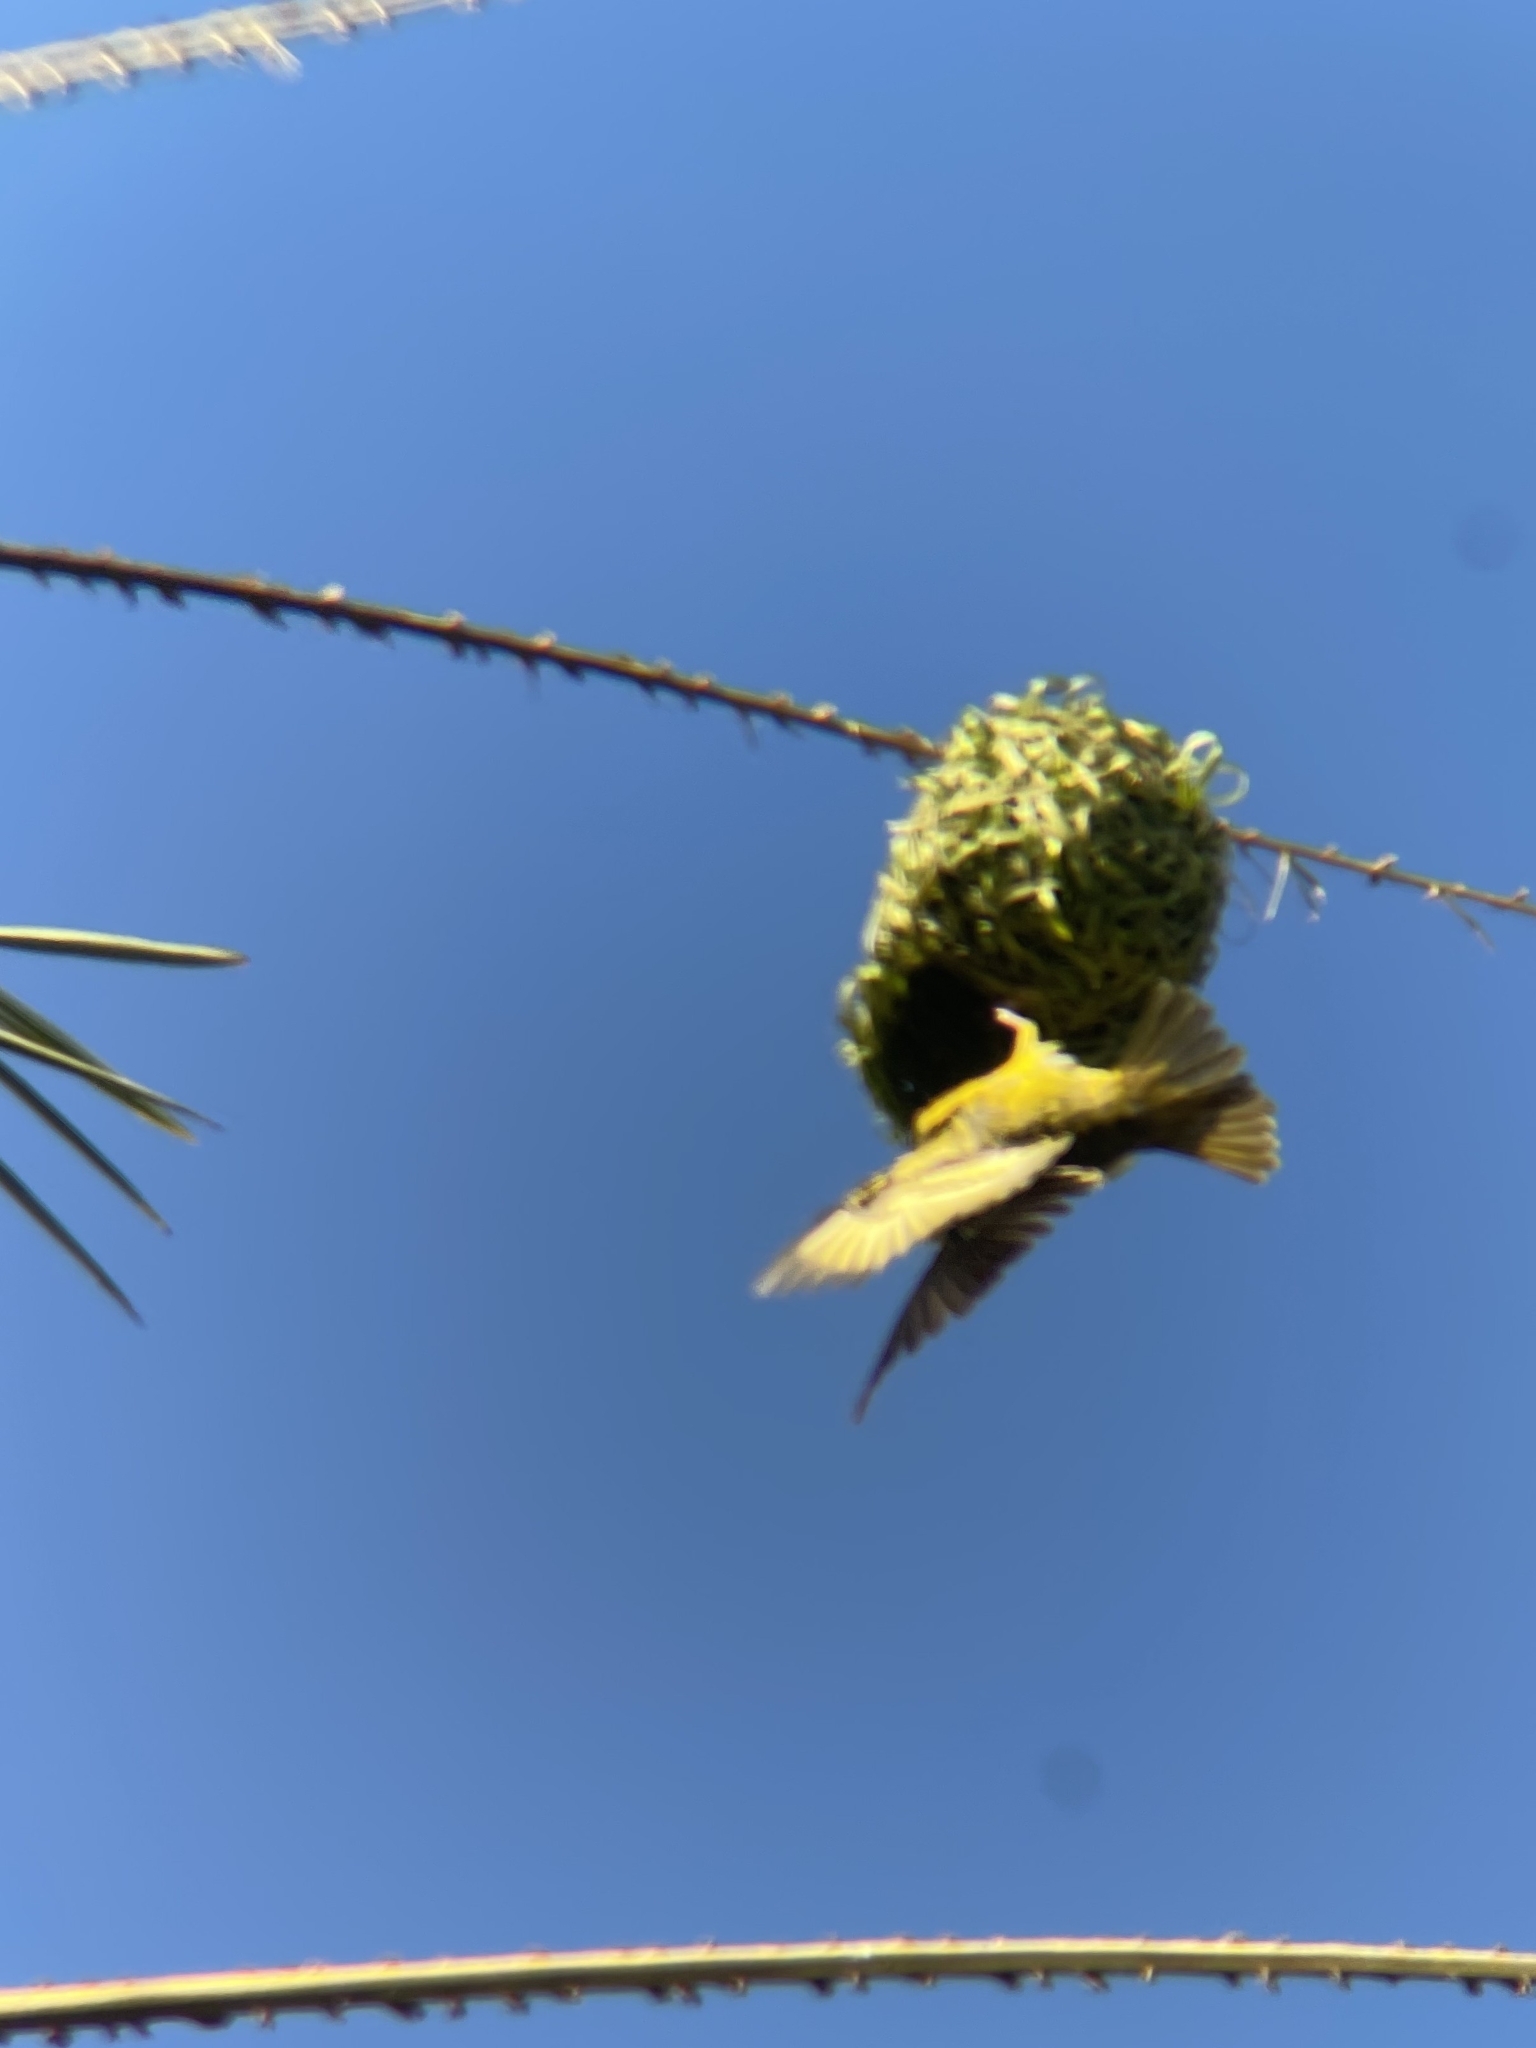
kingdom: Animalia
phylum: Chordata
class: Aves
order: Passeriformes
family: Ploceidae
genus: Ploceus
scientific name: Ploceus cucullatus
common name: Village weaver
